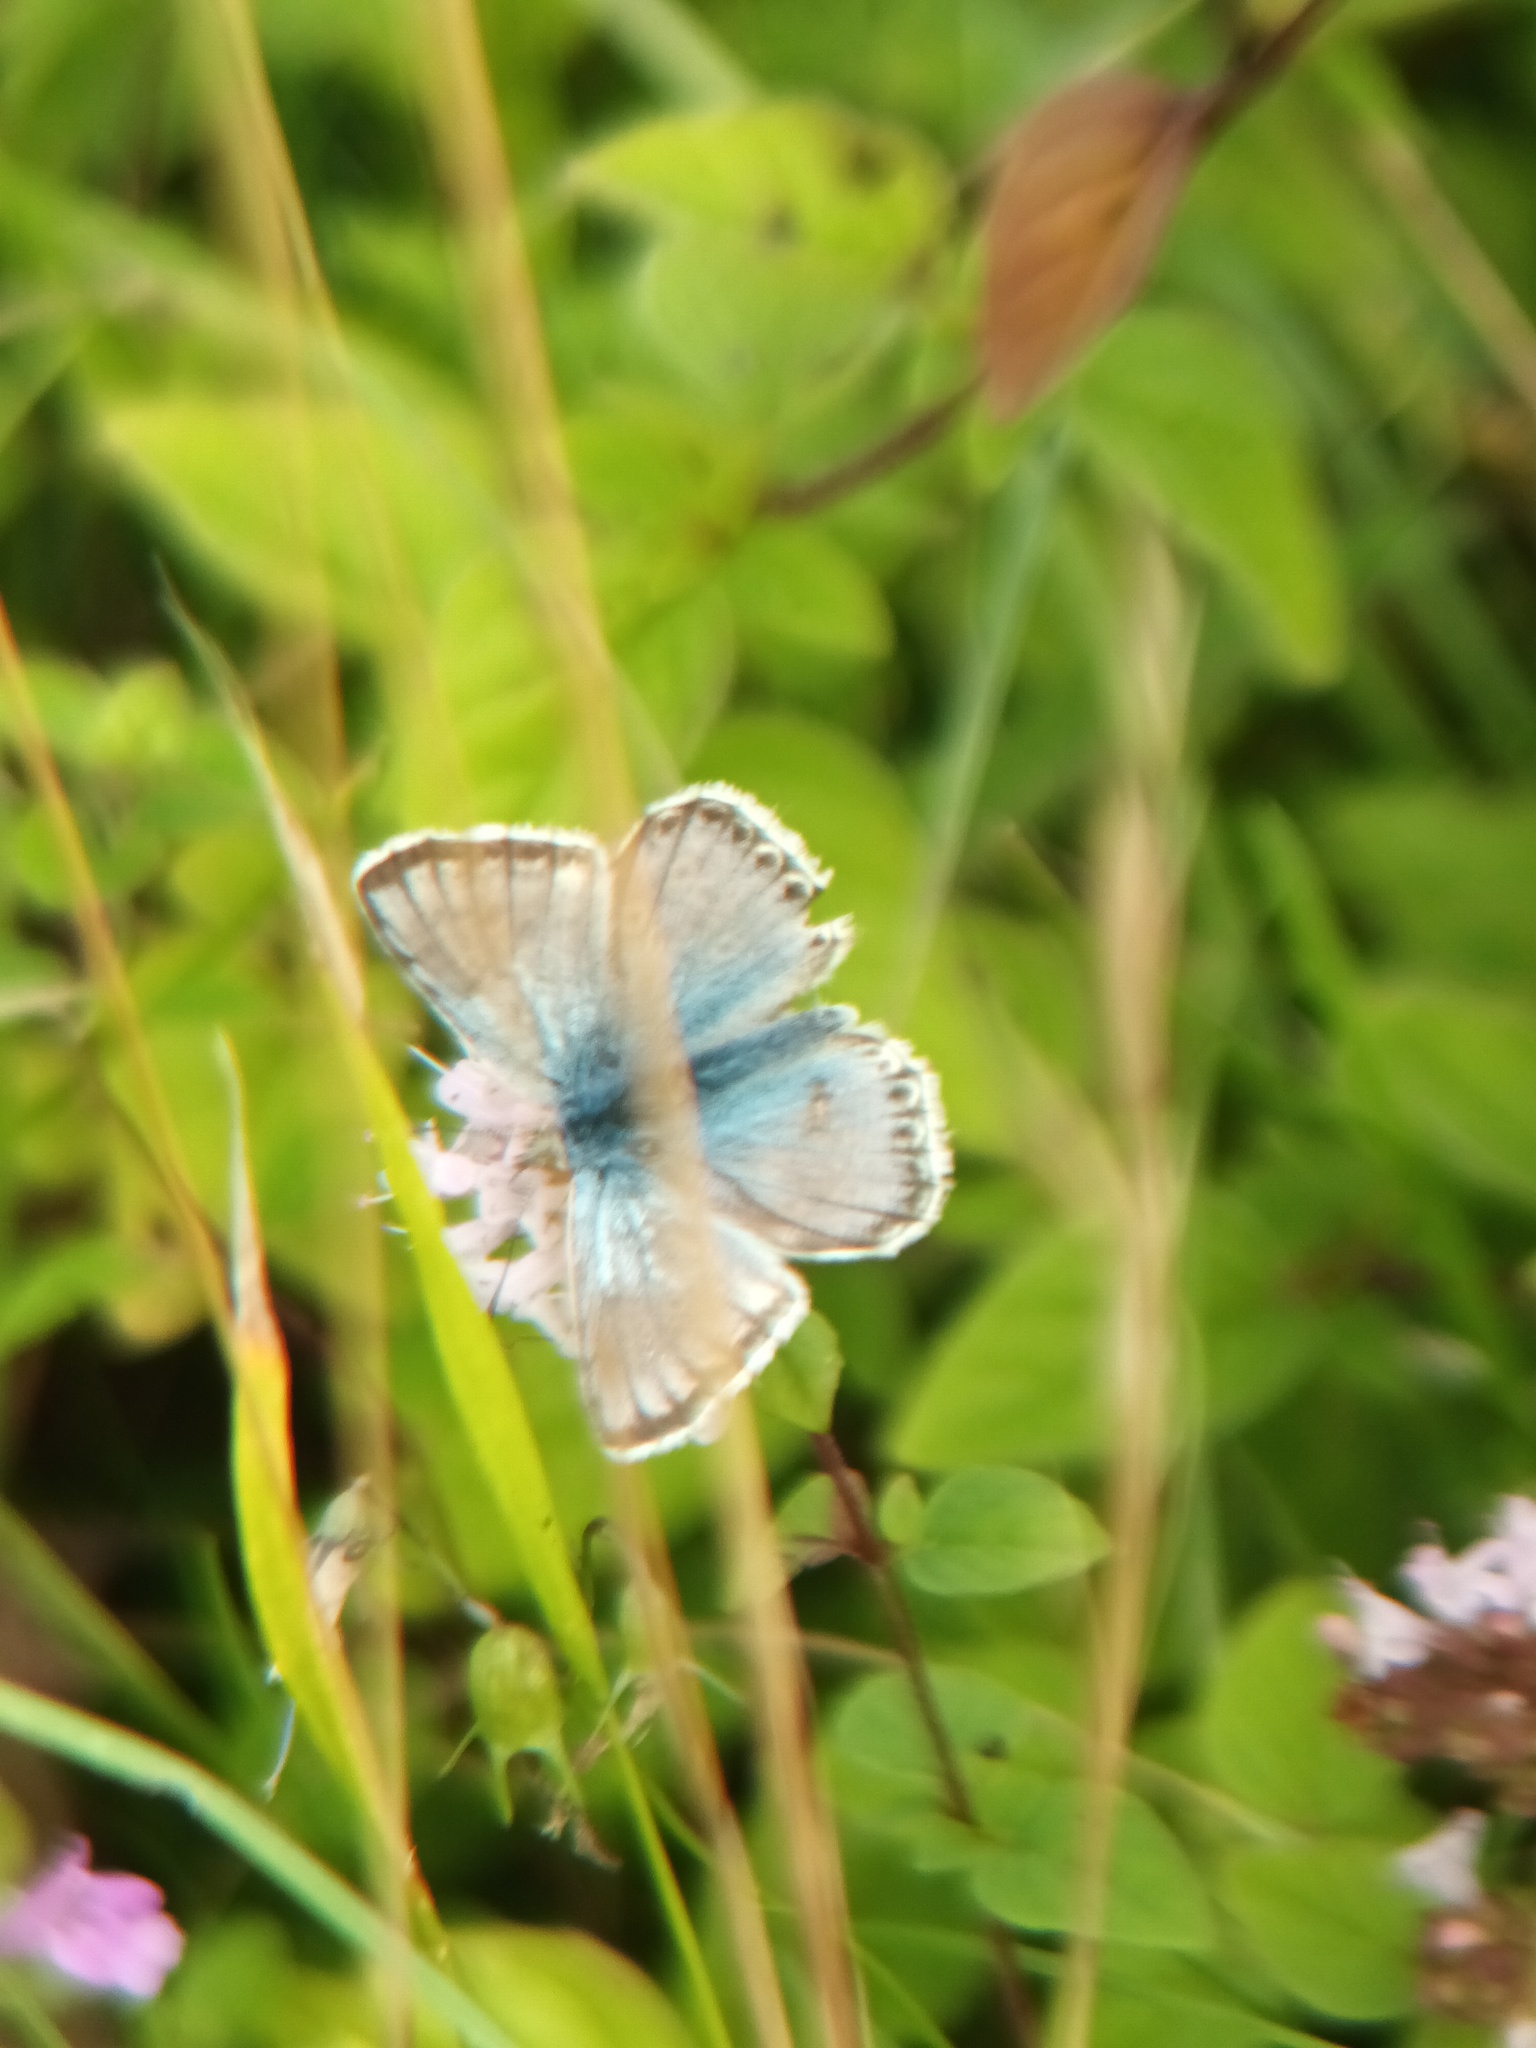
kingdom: Animalia
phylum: Arthropoda
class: Insecta
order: Lepidoptera
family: Lycaenidae
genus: Lysandra
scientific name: Lysandra coridon
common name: Chalkhill blue
